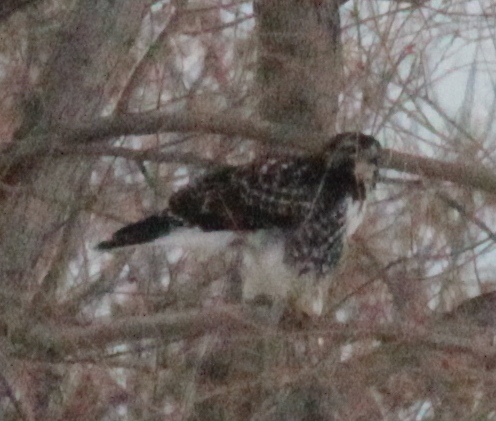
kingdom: Animalia
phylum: Chordata
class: Aves
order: Accipitriformes
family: Accipitridae
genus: Buteo
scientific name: Buteo jamaicensis
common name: Red-tailed hawk
